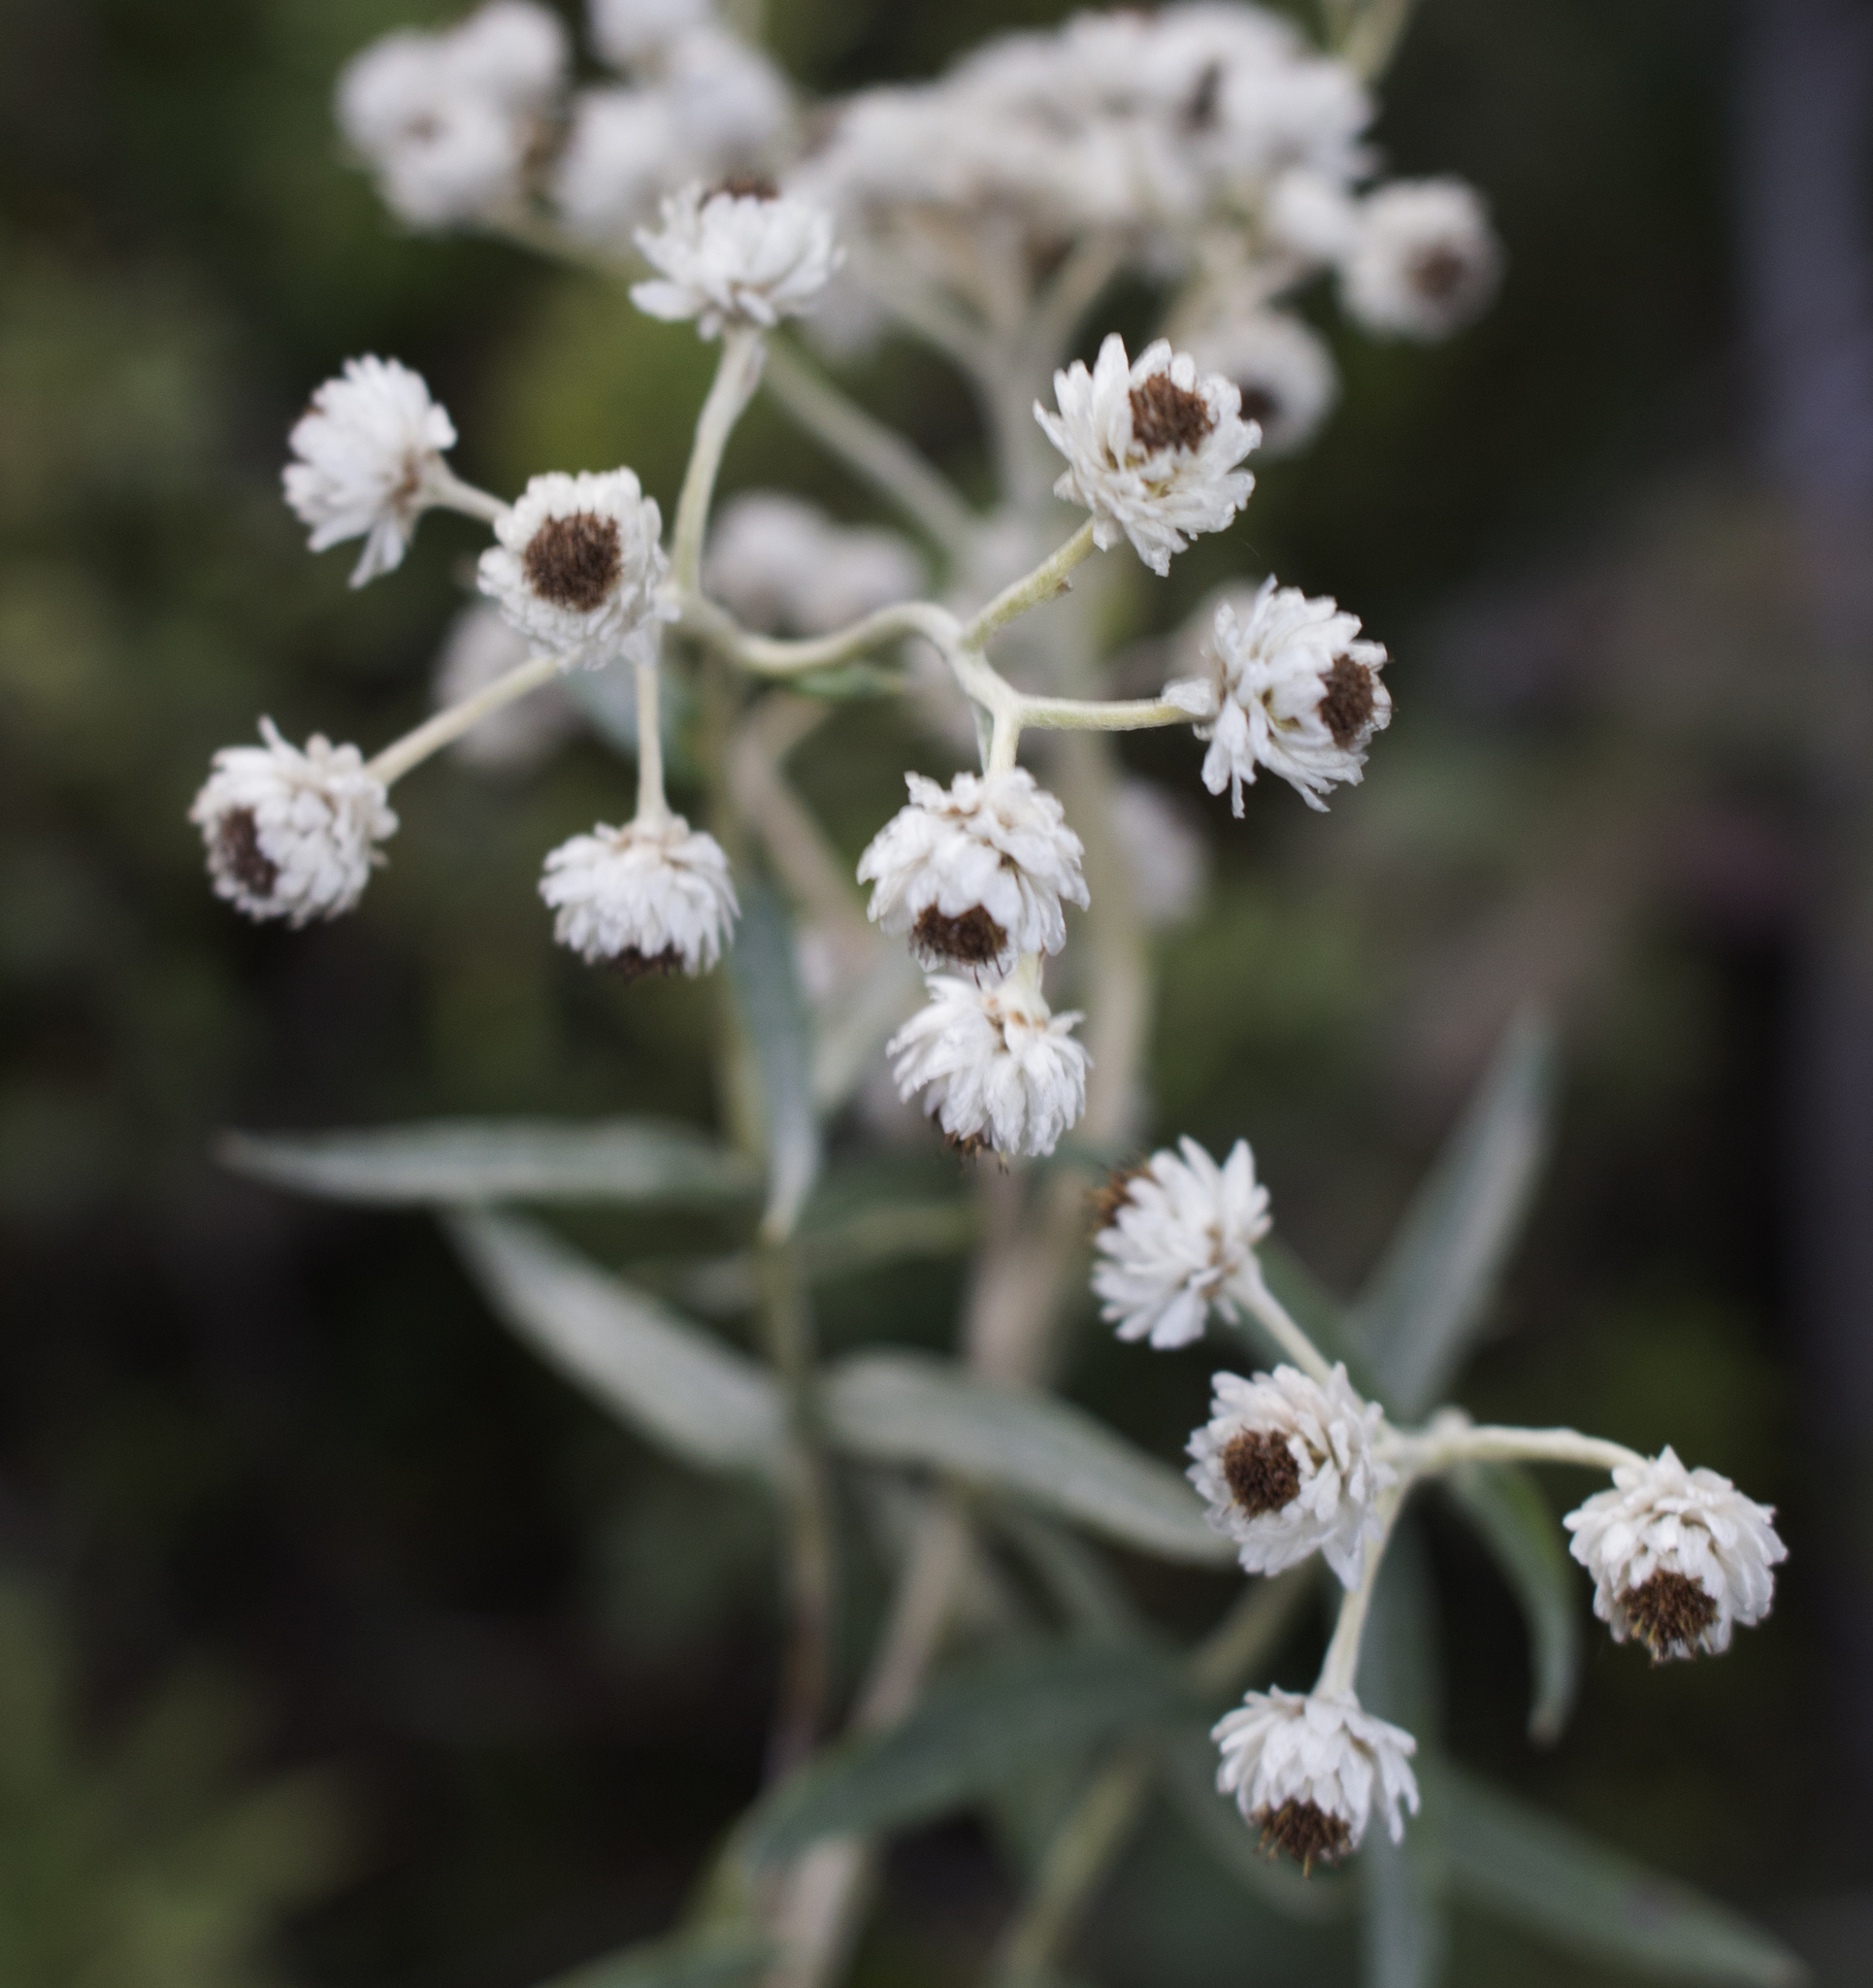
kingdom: Plantae
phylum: Tracheophyta
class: Magnoliopsida
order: Asterales
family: Asteraceae
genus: Anaphalis
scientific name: Anaphalis margaritacea
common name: Pearly everlasting
